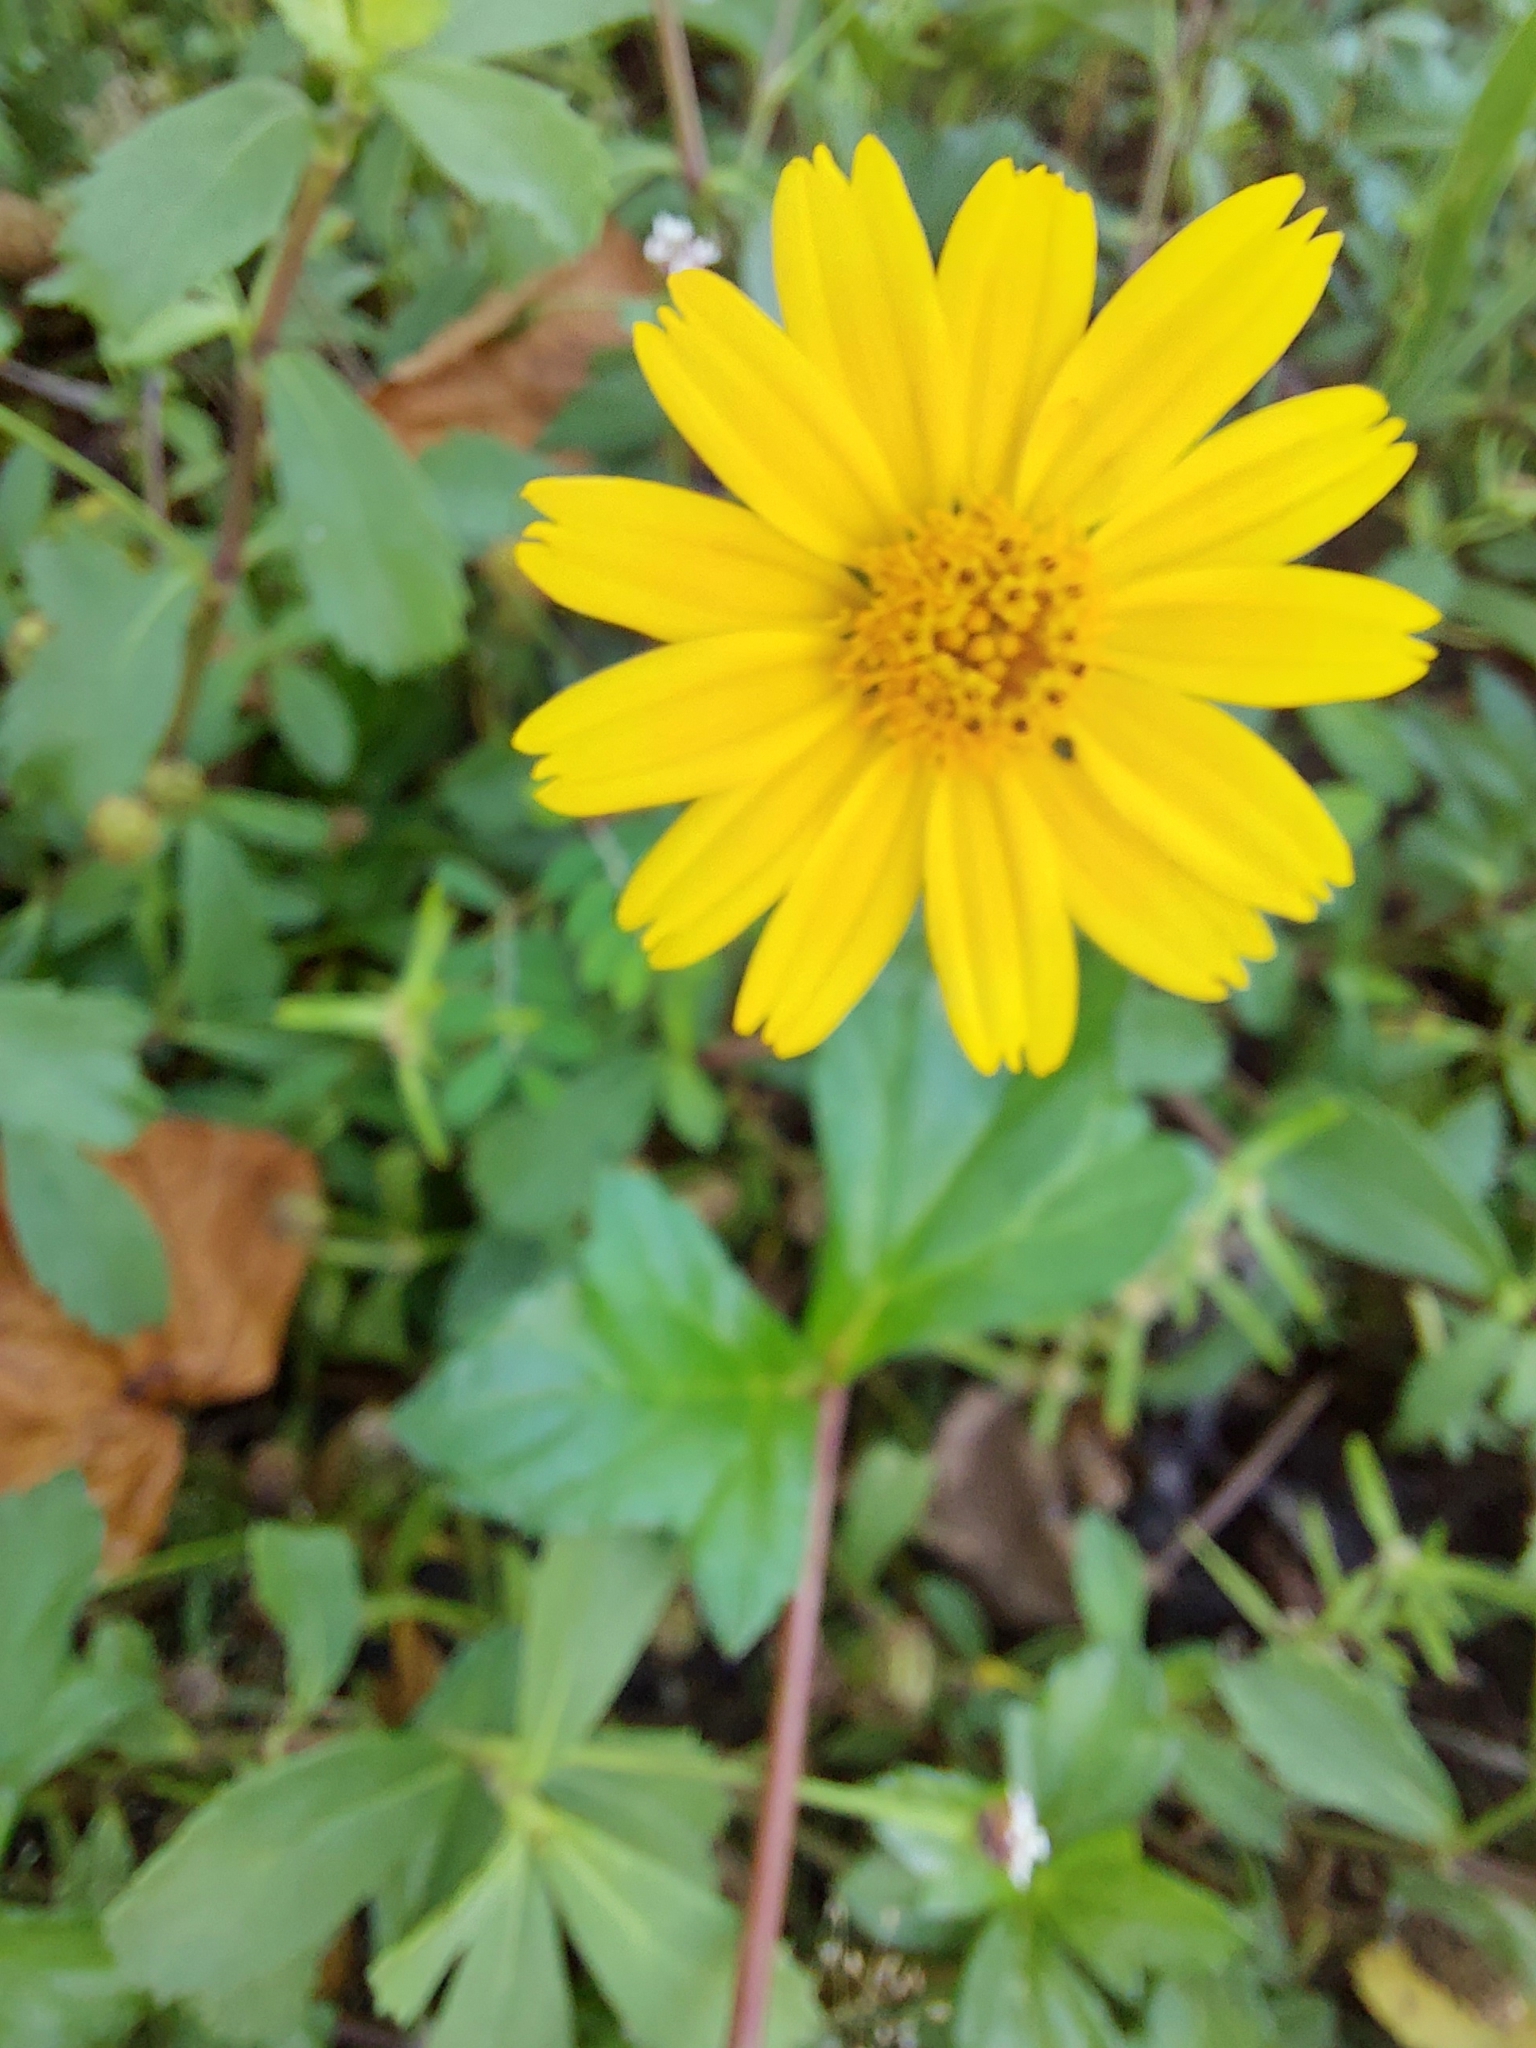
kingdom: Plantae
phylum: Tracheophyta
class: Magnoliopsida
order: Asterales
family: Asteraceae
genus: Sphagneticola
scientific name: Sphagneticola trilobata
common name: Bay biscayne creeping-oxeye
